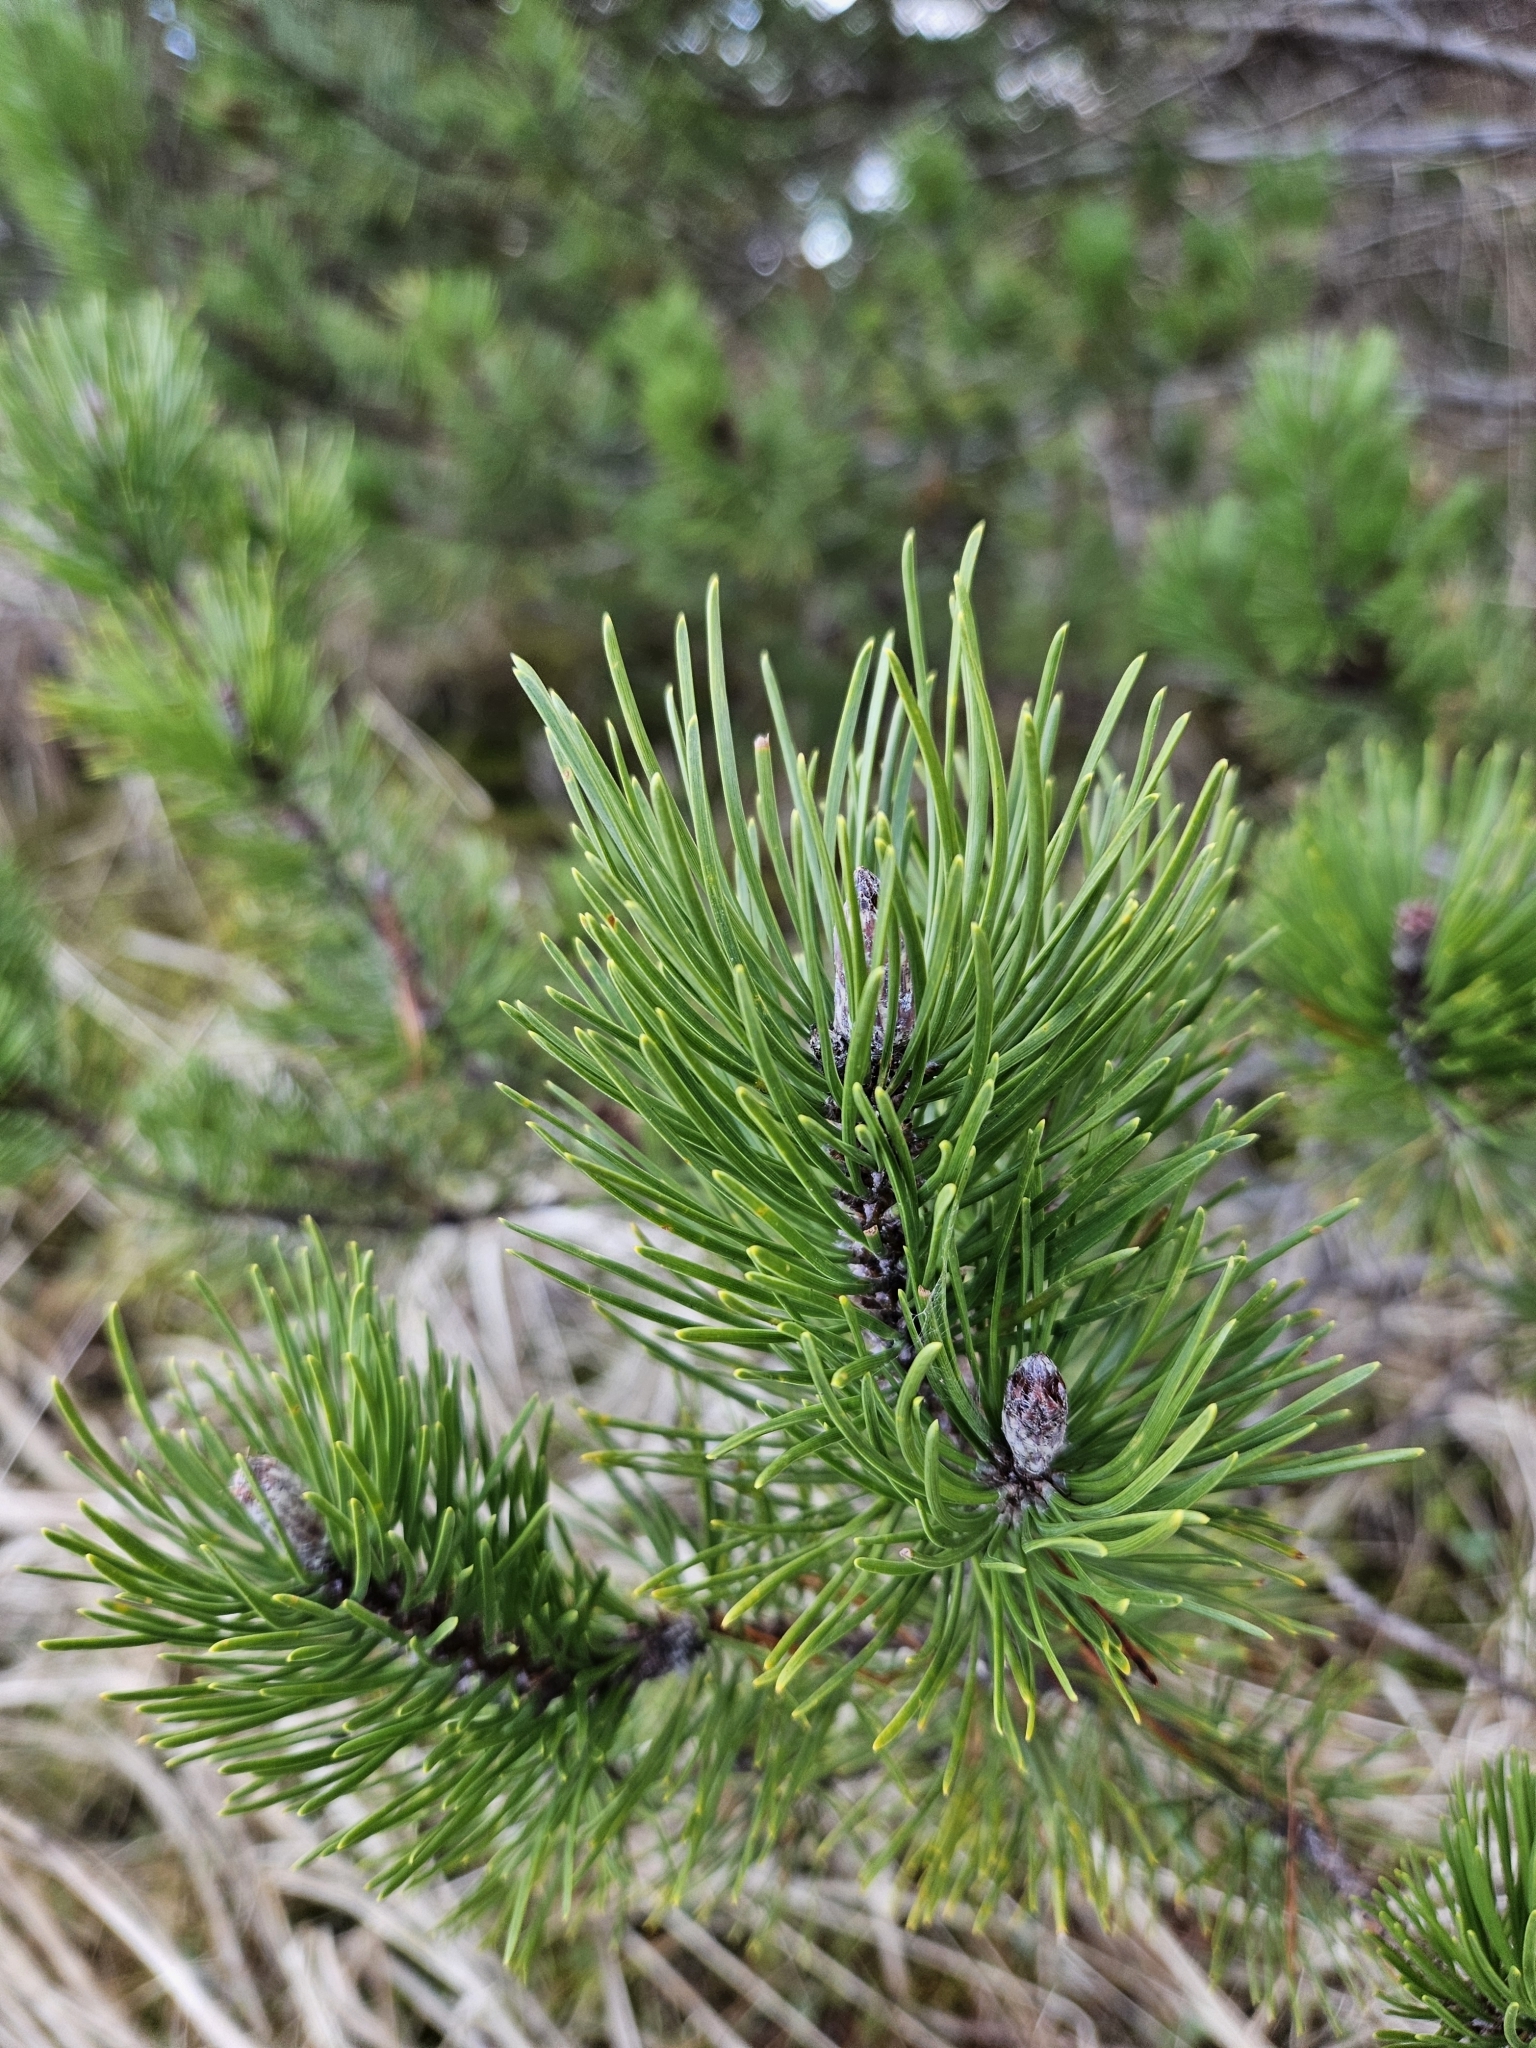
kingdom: Plantae
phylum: Tracheophyta
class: Pinopsida
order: Pinales
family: Pinaceae
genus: Pinus
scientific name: Pinus contorta
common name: Lodgepole pine
